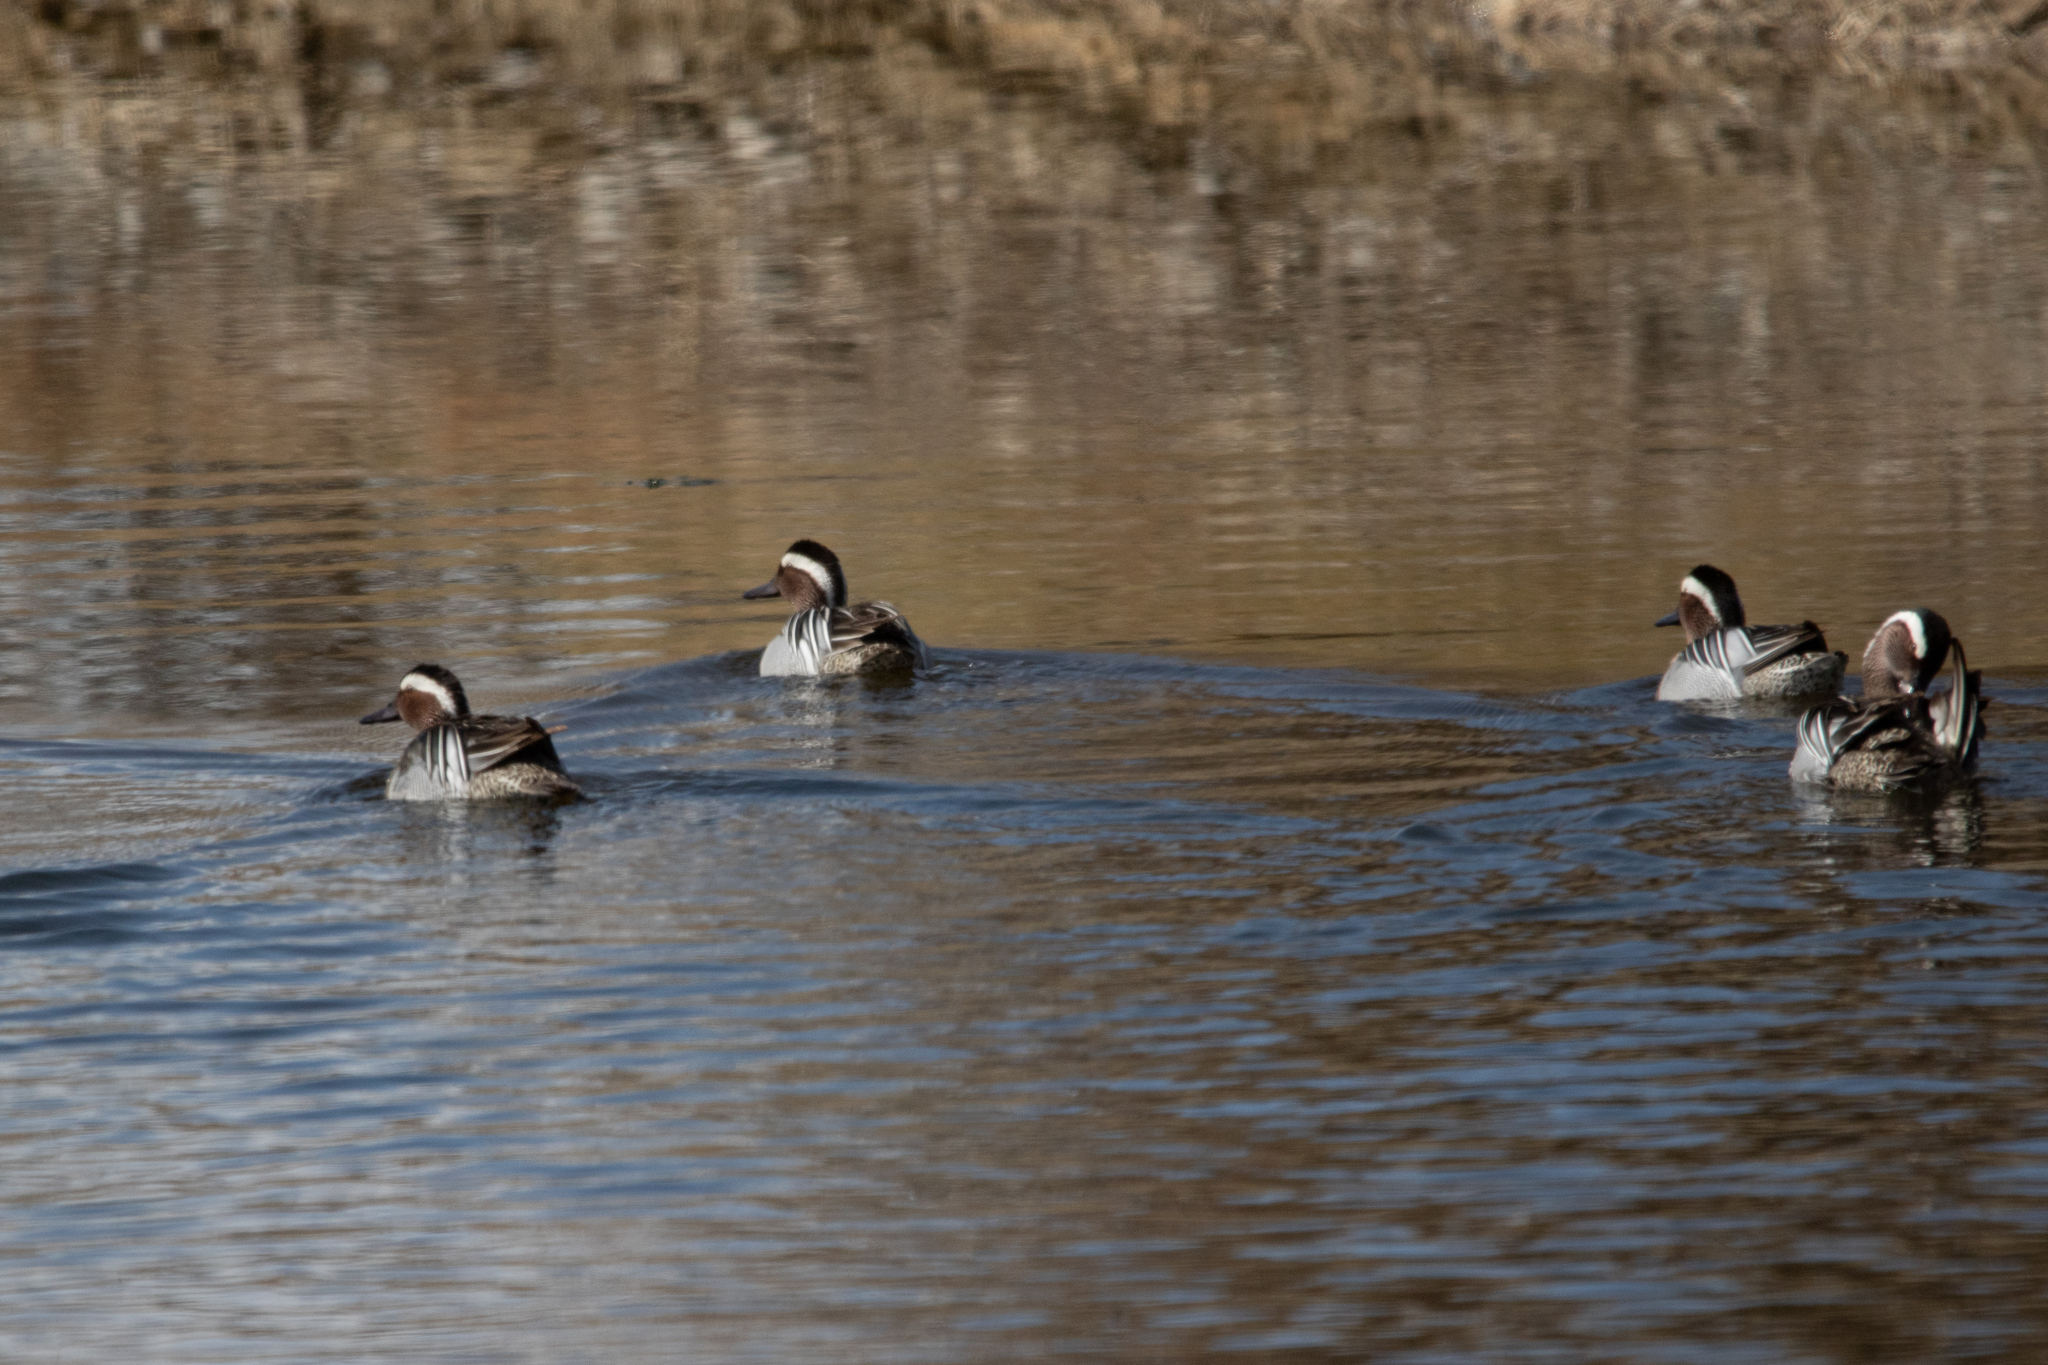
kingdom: Animalia
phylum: Chordata
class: Aves
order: Anseriformes
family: Anatidae
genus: Spatula
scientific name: Spatula querquedula
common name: Garganey
